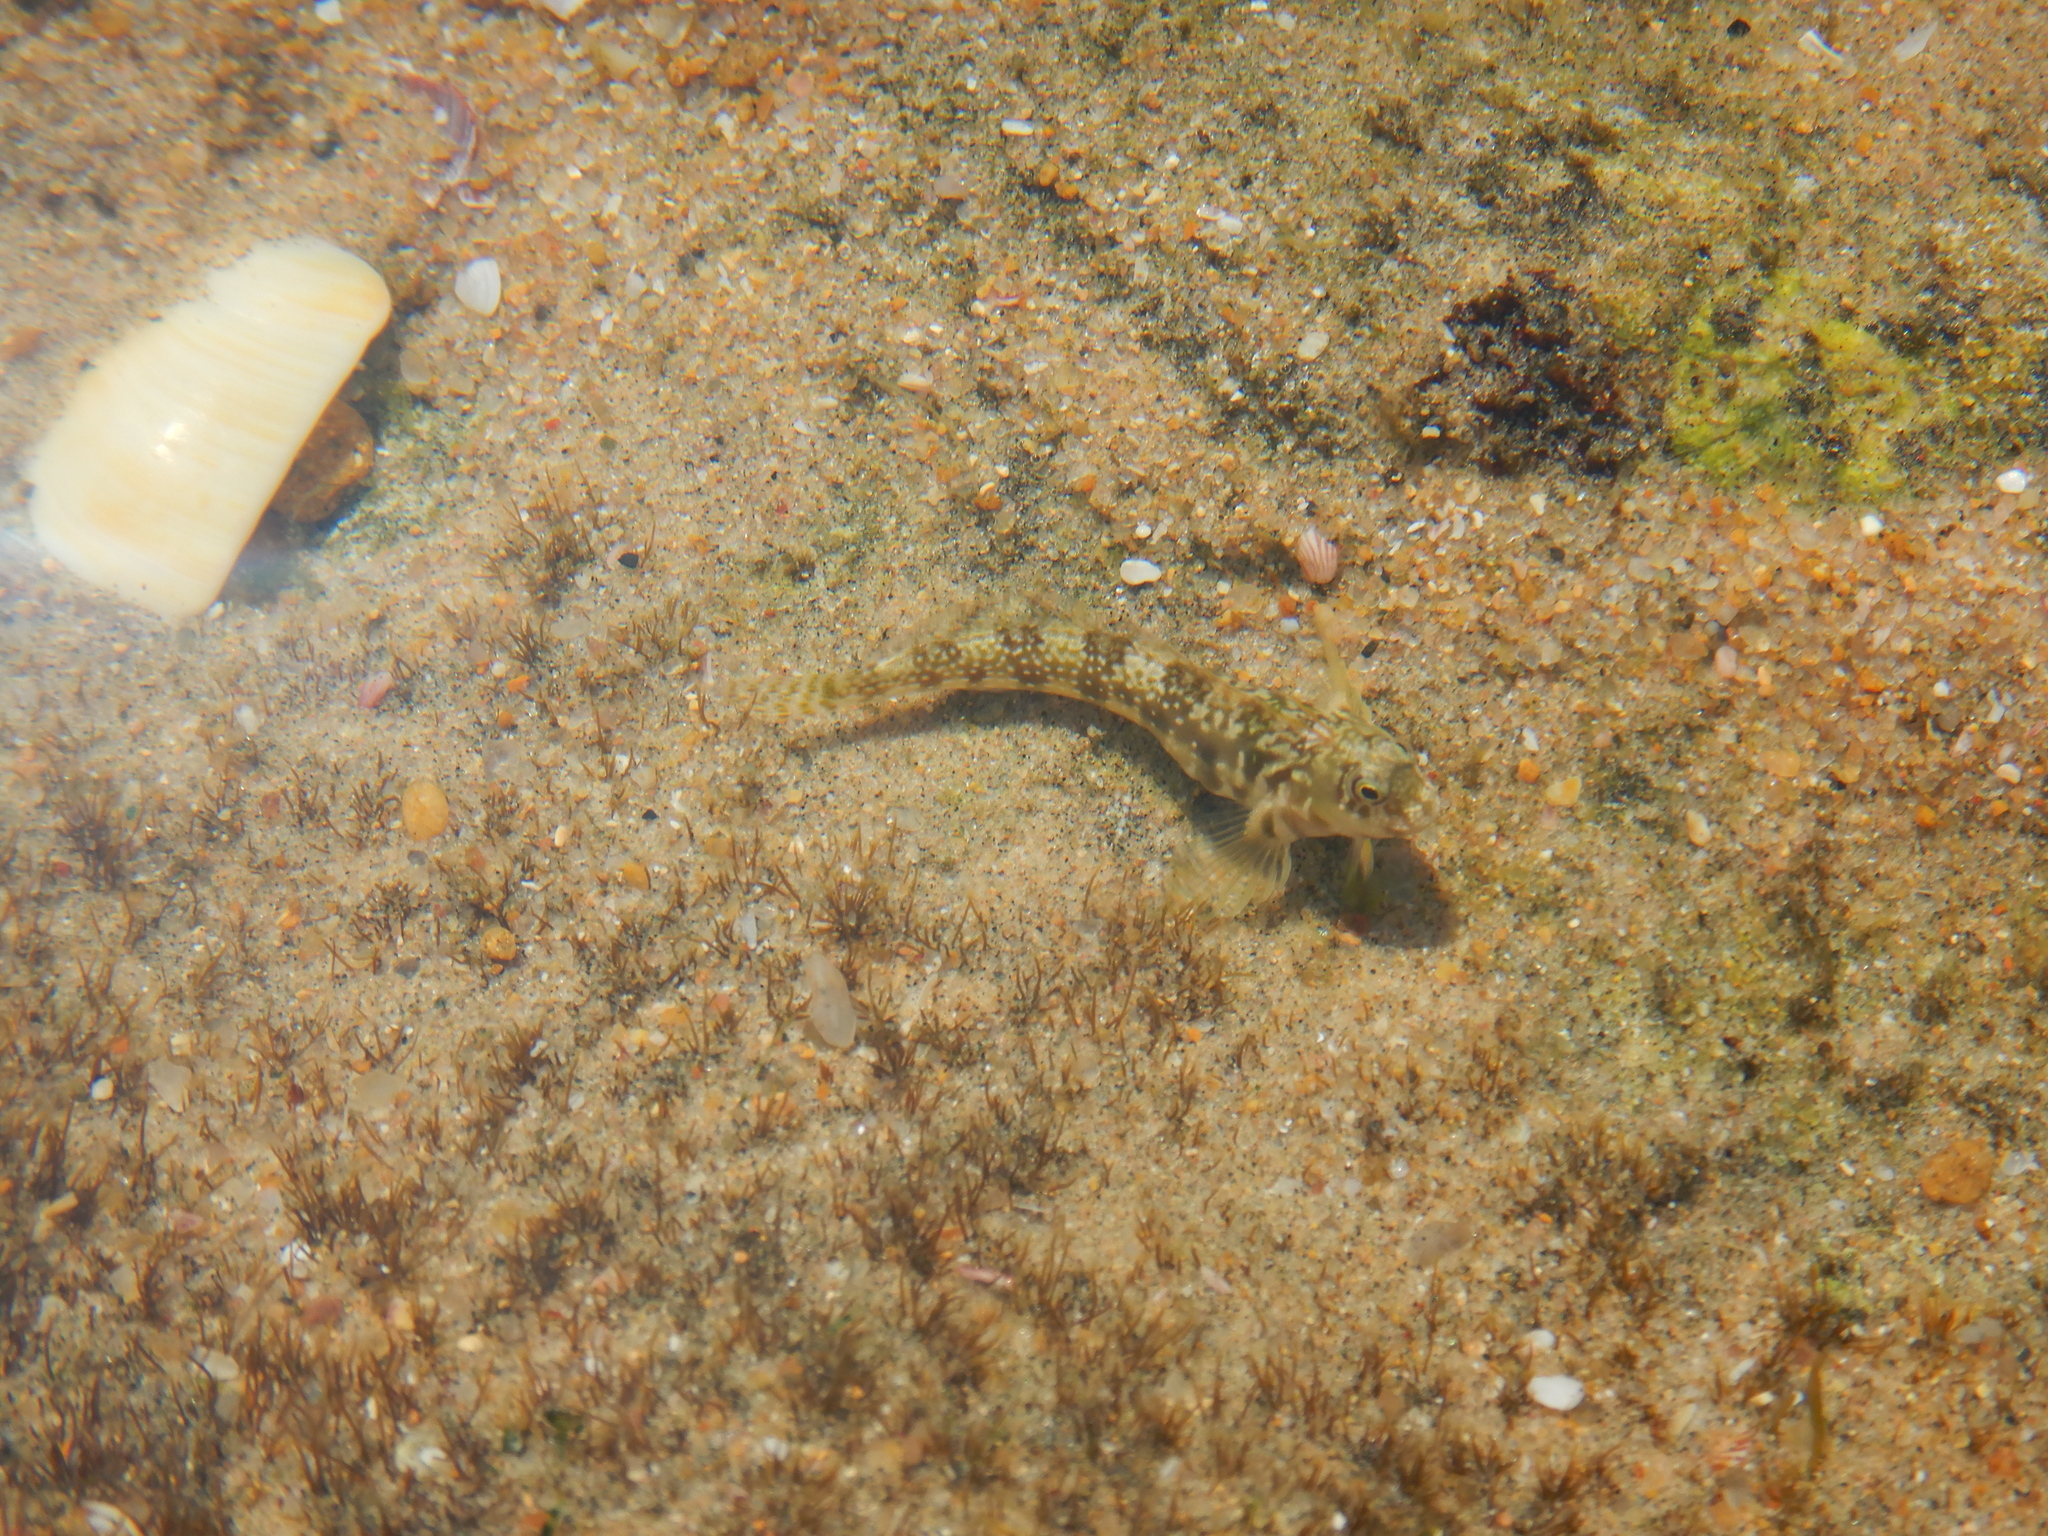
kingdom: Animalia
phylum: Chordata
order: Perciformes
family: Blenniidae
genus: Antennablennius
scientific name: Antennablennius bifilum
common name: Horned rockskipper
